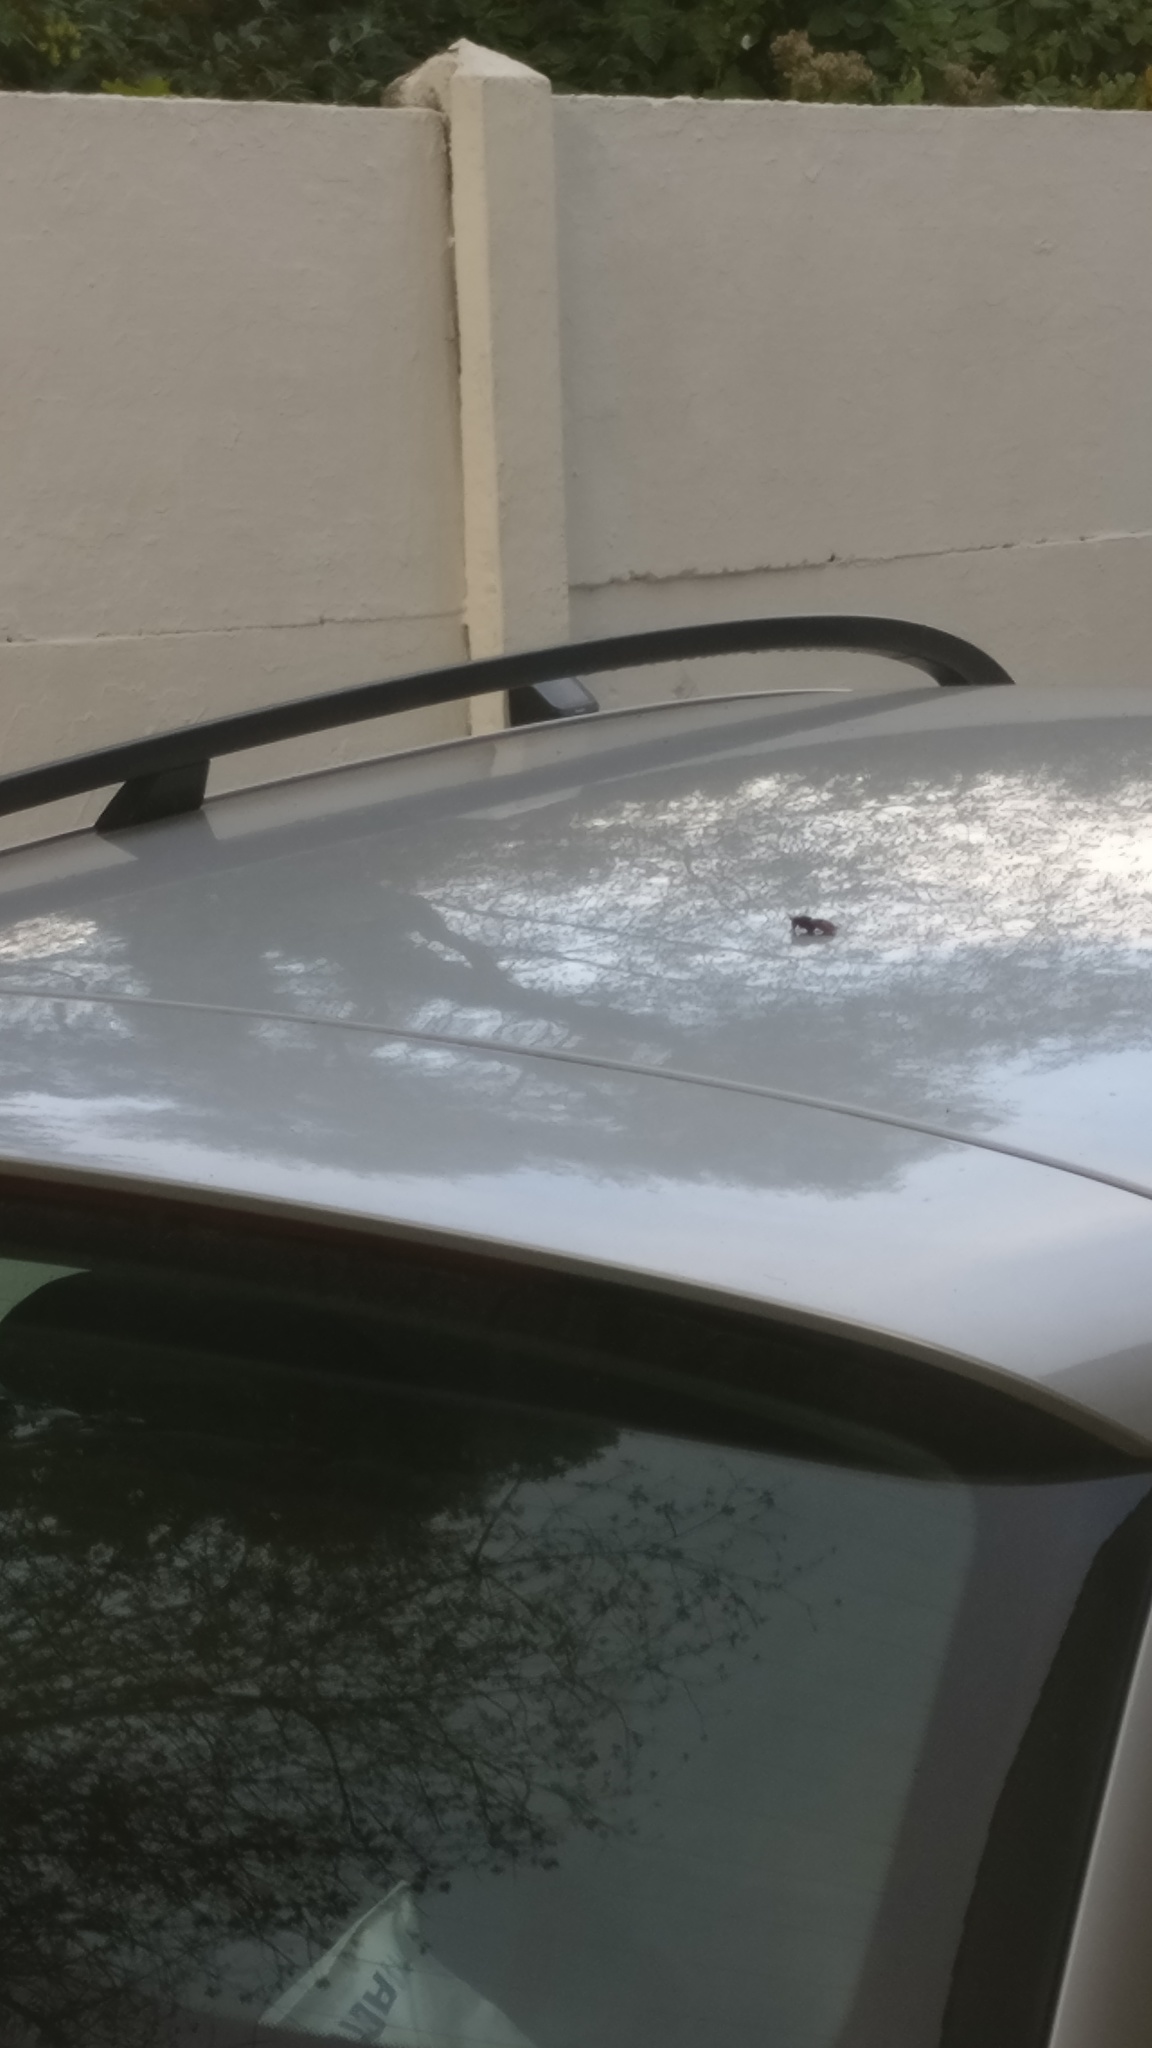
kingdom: Animalia
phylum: Arthropoda
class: Insecta
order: Hymenoptera
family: Vespidae
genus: Vespa
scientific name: Vespa crabro
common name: Hornet
